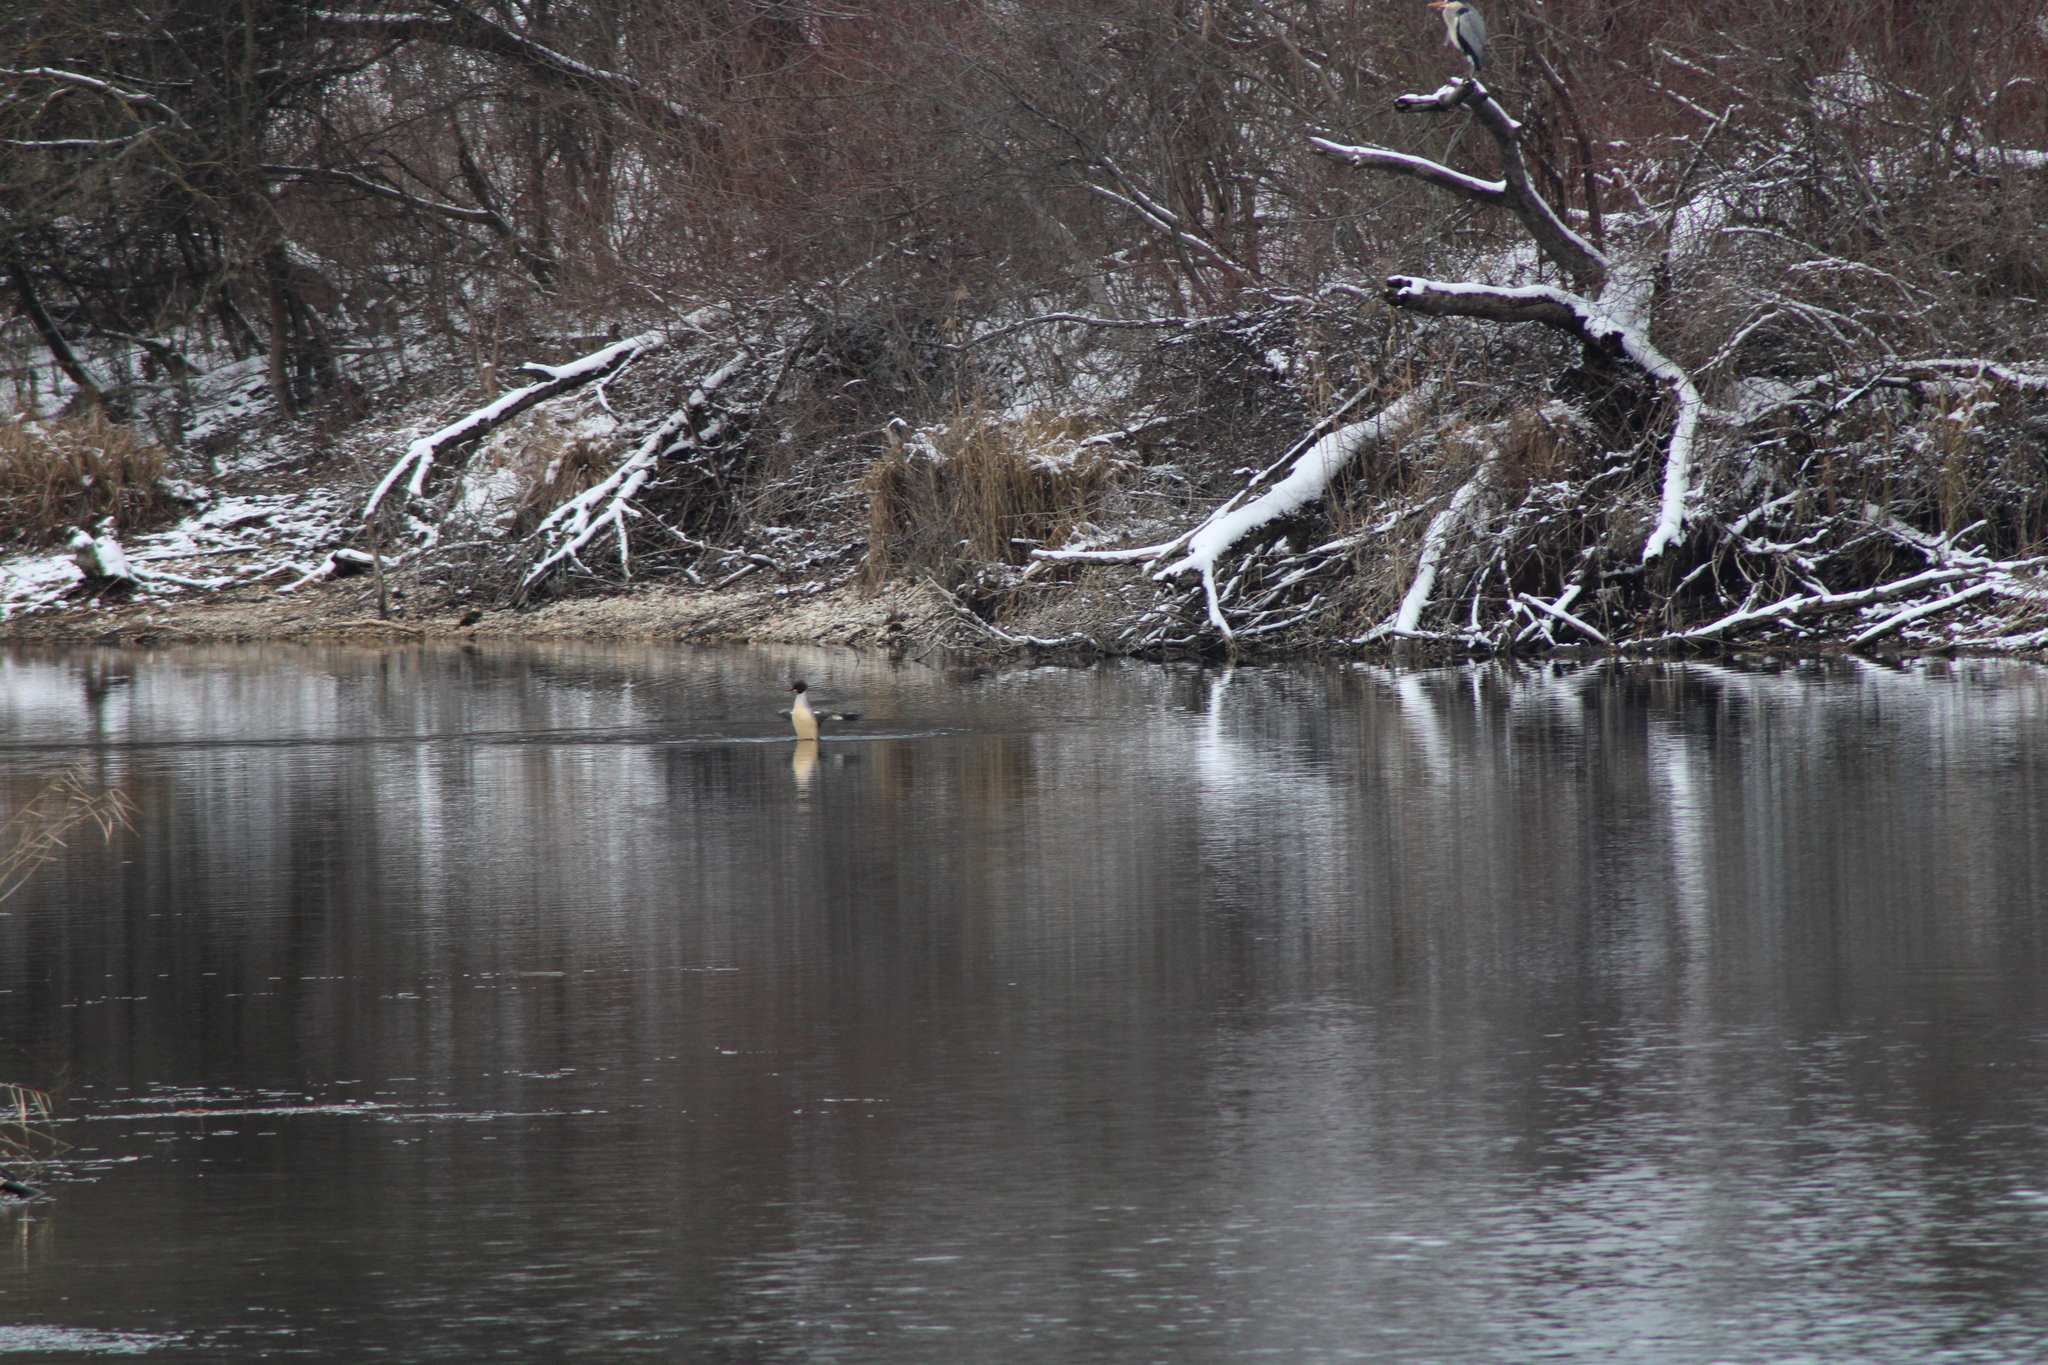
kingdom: Animalia
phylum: Chordata
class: Aves
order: Anseriformes
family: Anatidae
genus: Mergus
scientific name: Mergus merganser
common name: Common merganser
